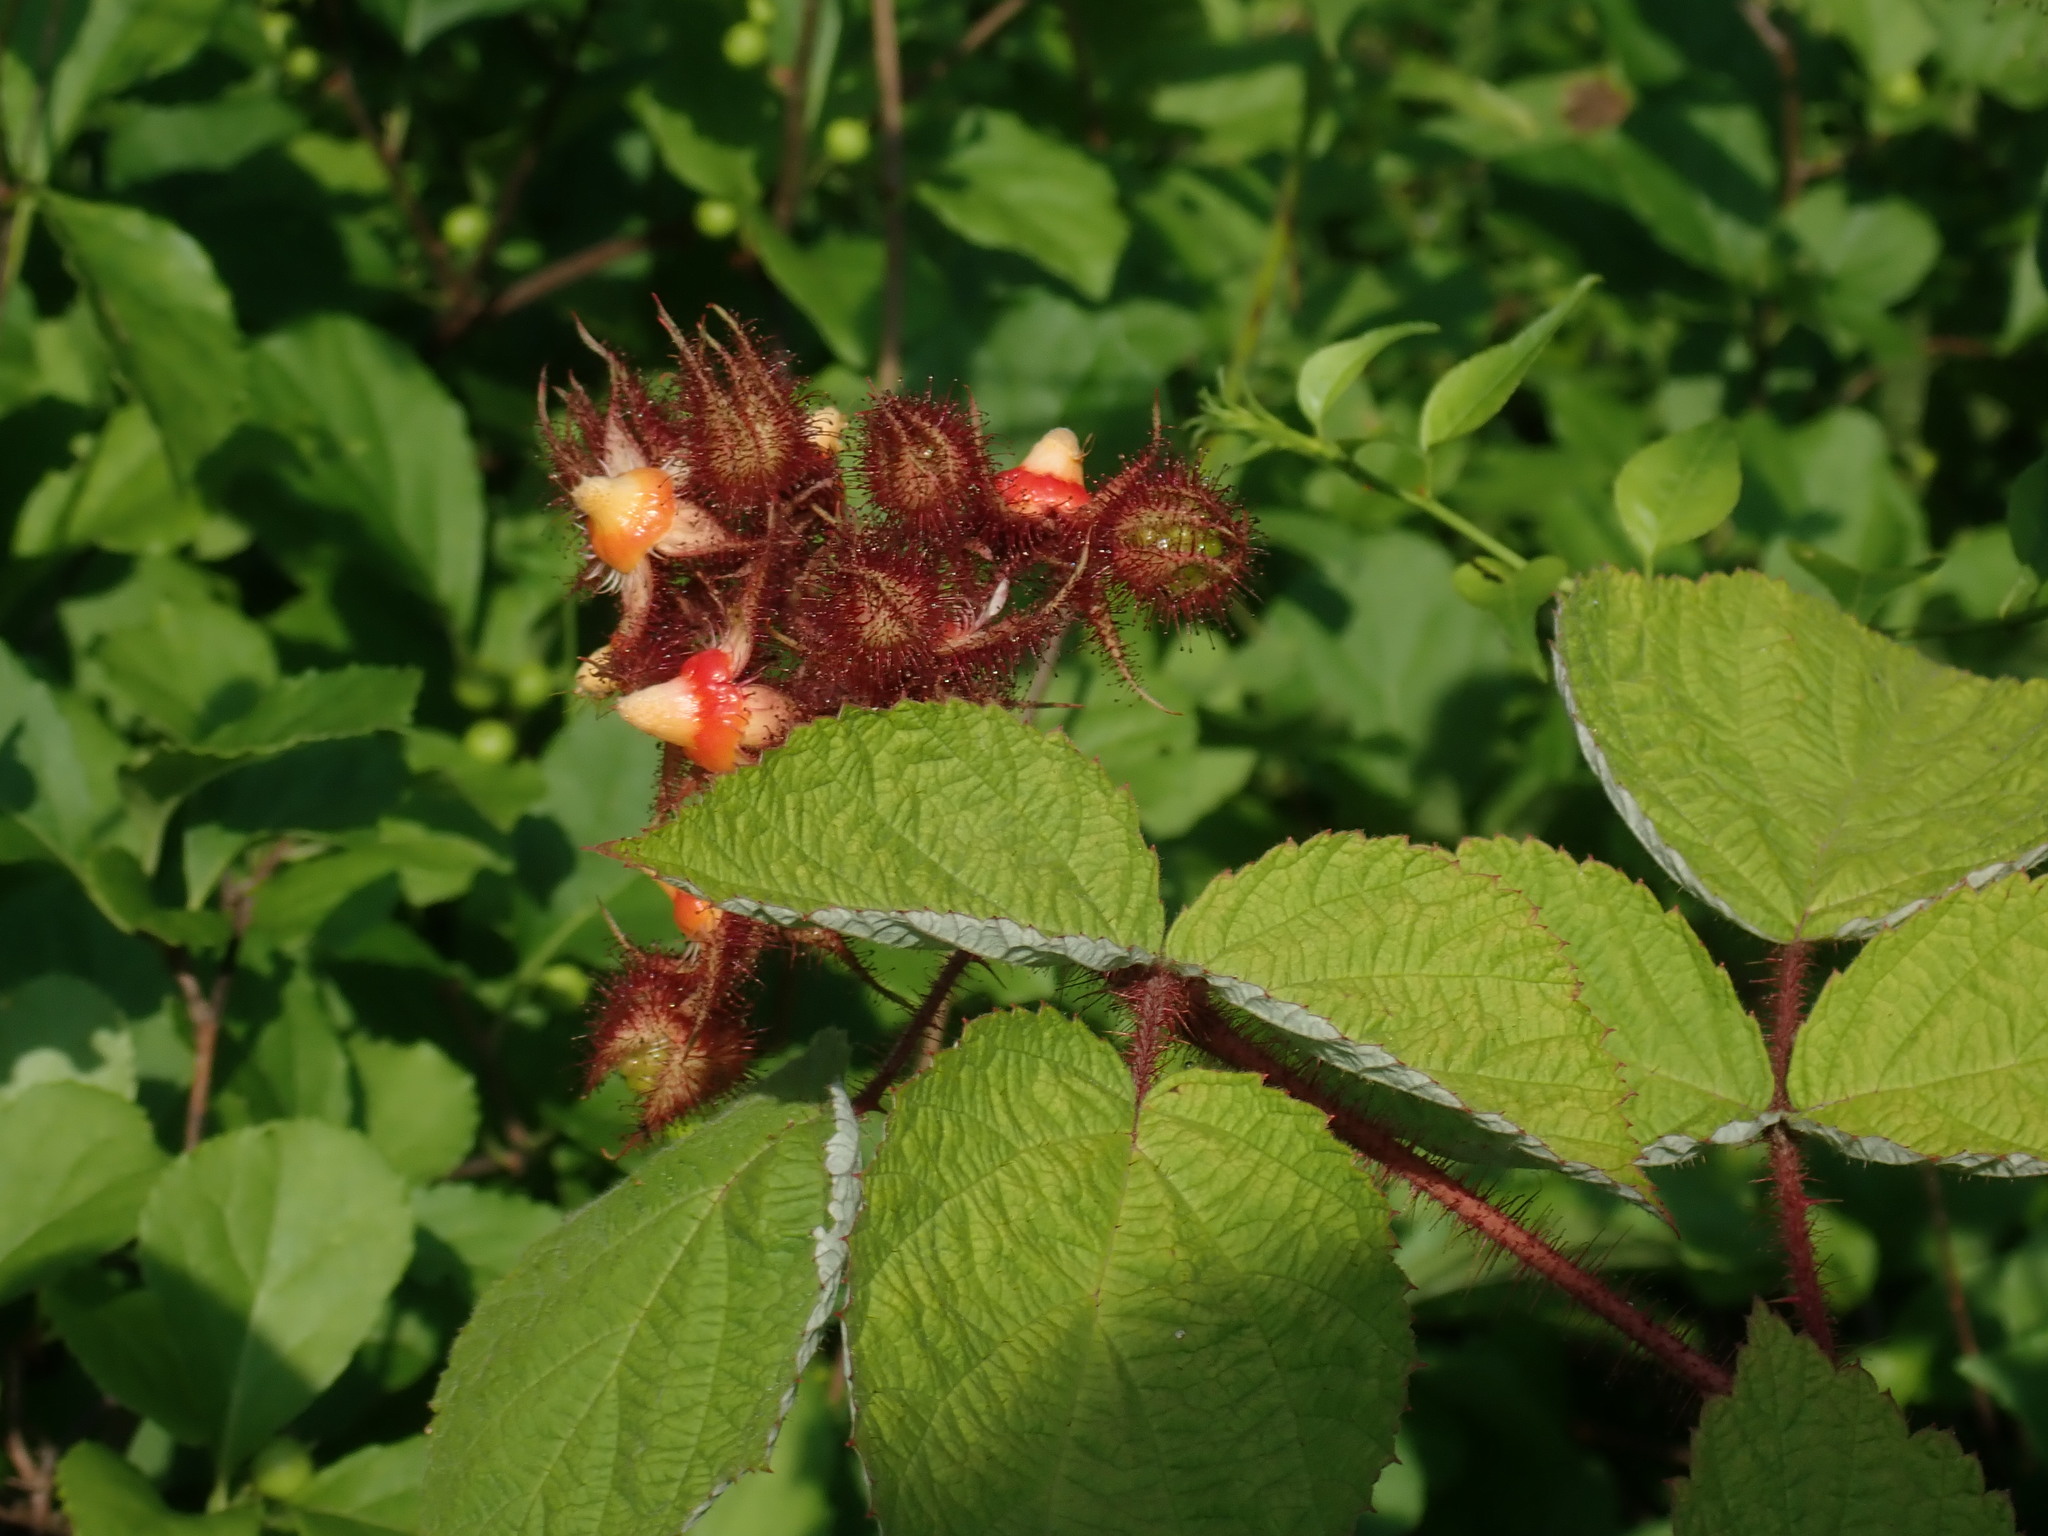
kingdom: Plantae
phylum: Tracheophyta
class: Magnoliopsida
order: Rosales
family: Rosaceae
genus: Rubus
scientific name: Rubus phoenicolasius
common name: Japanese wineberry
